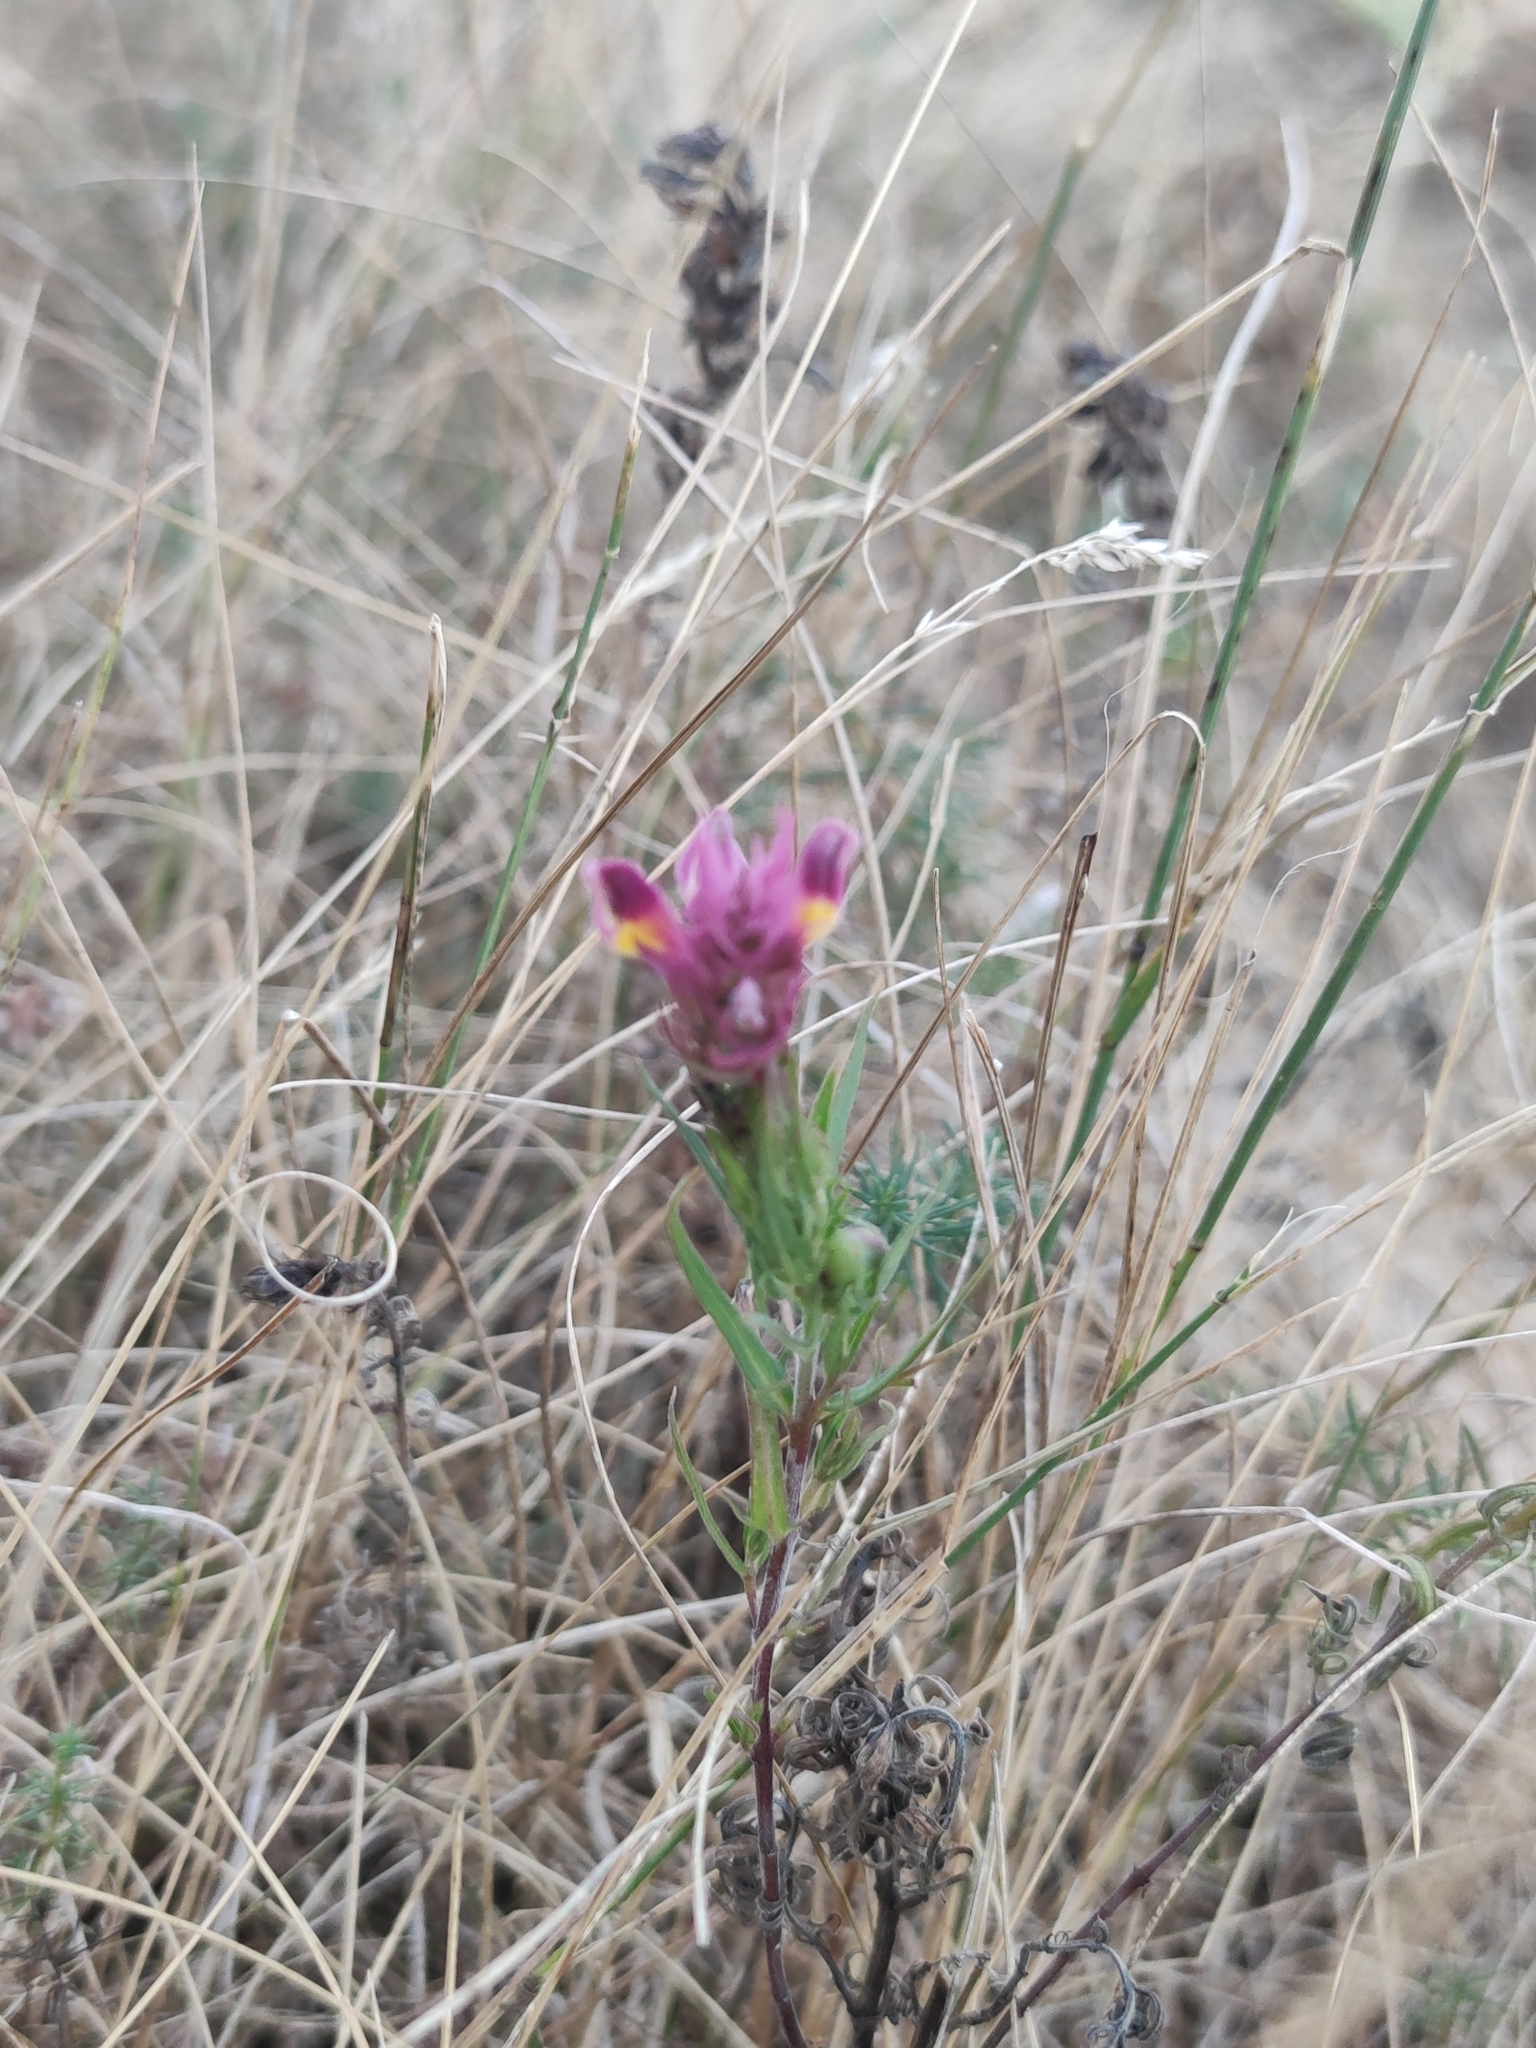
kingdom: Plantae
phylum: Tracheophyta
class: Magnoliopsida
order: Lamiales
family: Orobanchaceae
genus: Melampyrum
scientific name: Melampyrum arvense
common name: Field cow-wheat
